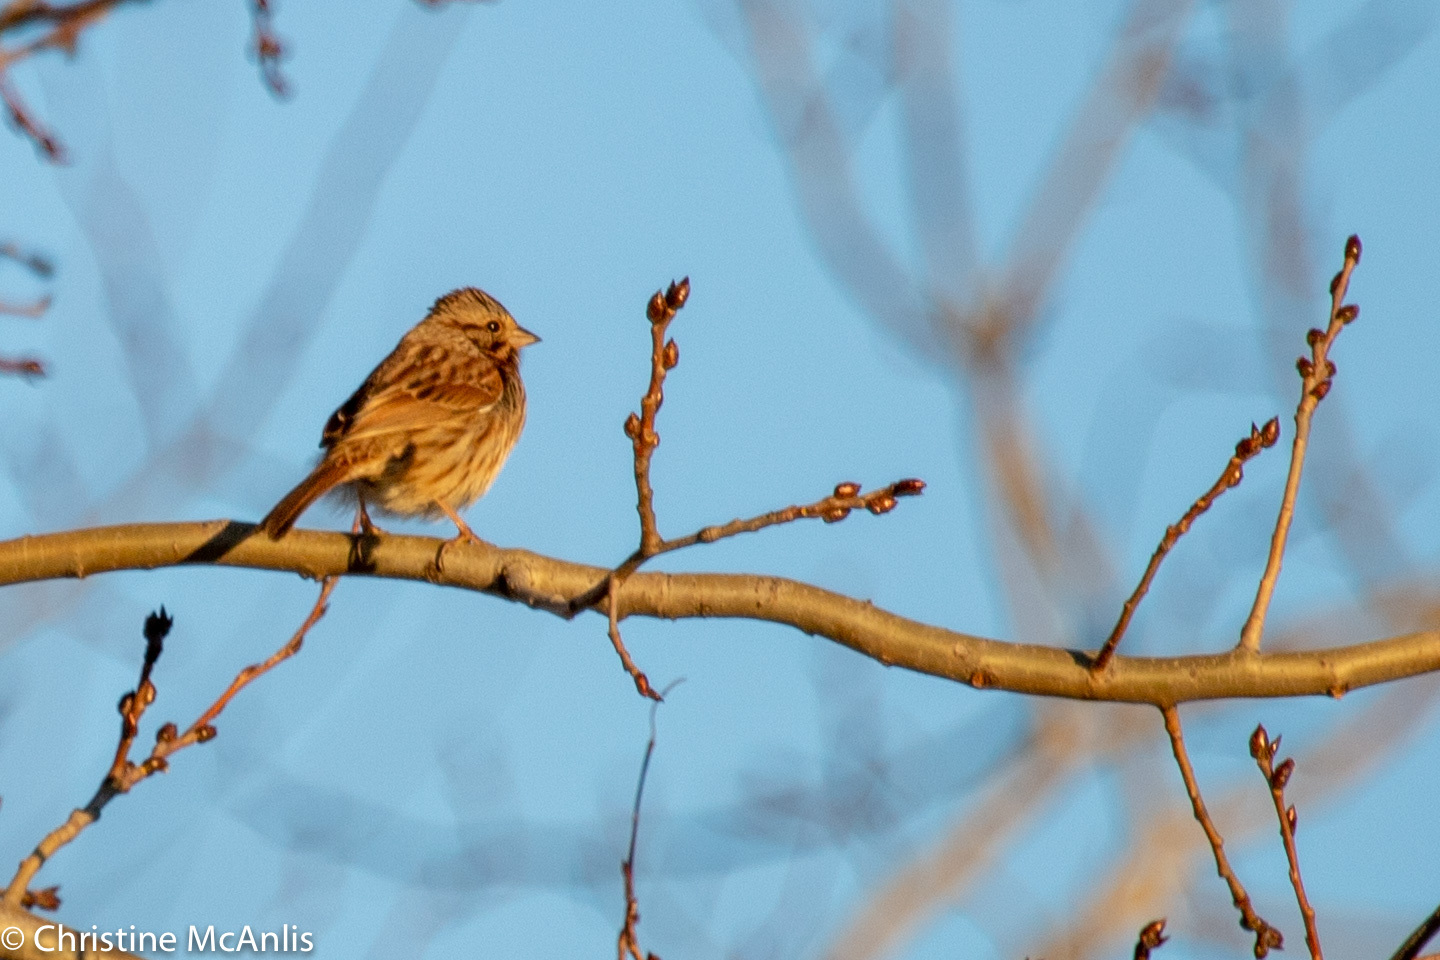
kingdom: Animalia
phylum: Chordata
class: Aves
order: Passeriformes
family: Passerellidae
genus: Melospiza
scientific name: Melospiza melodia
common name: Song sparrow
